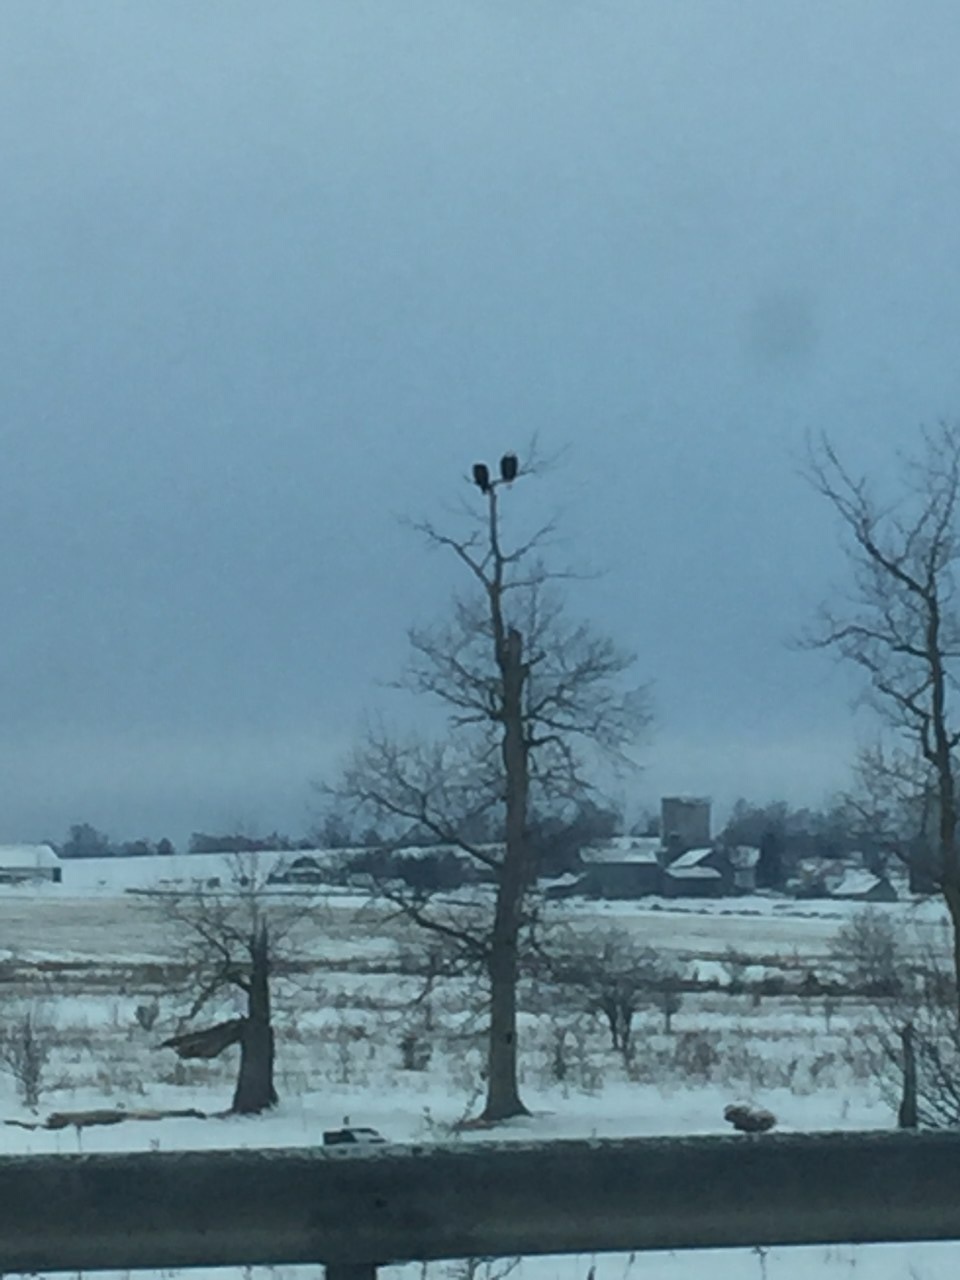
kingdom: Animalia
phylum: Chordata
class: Aves
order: Accipitriformes
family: Accipitridae
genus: Haliaeetus
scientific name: Haliaeetus leucocephalus
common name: Bald eagle
